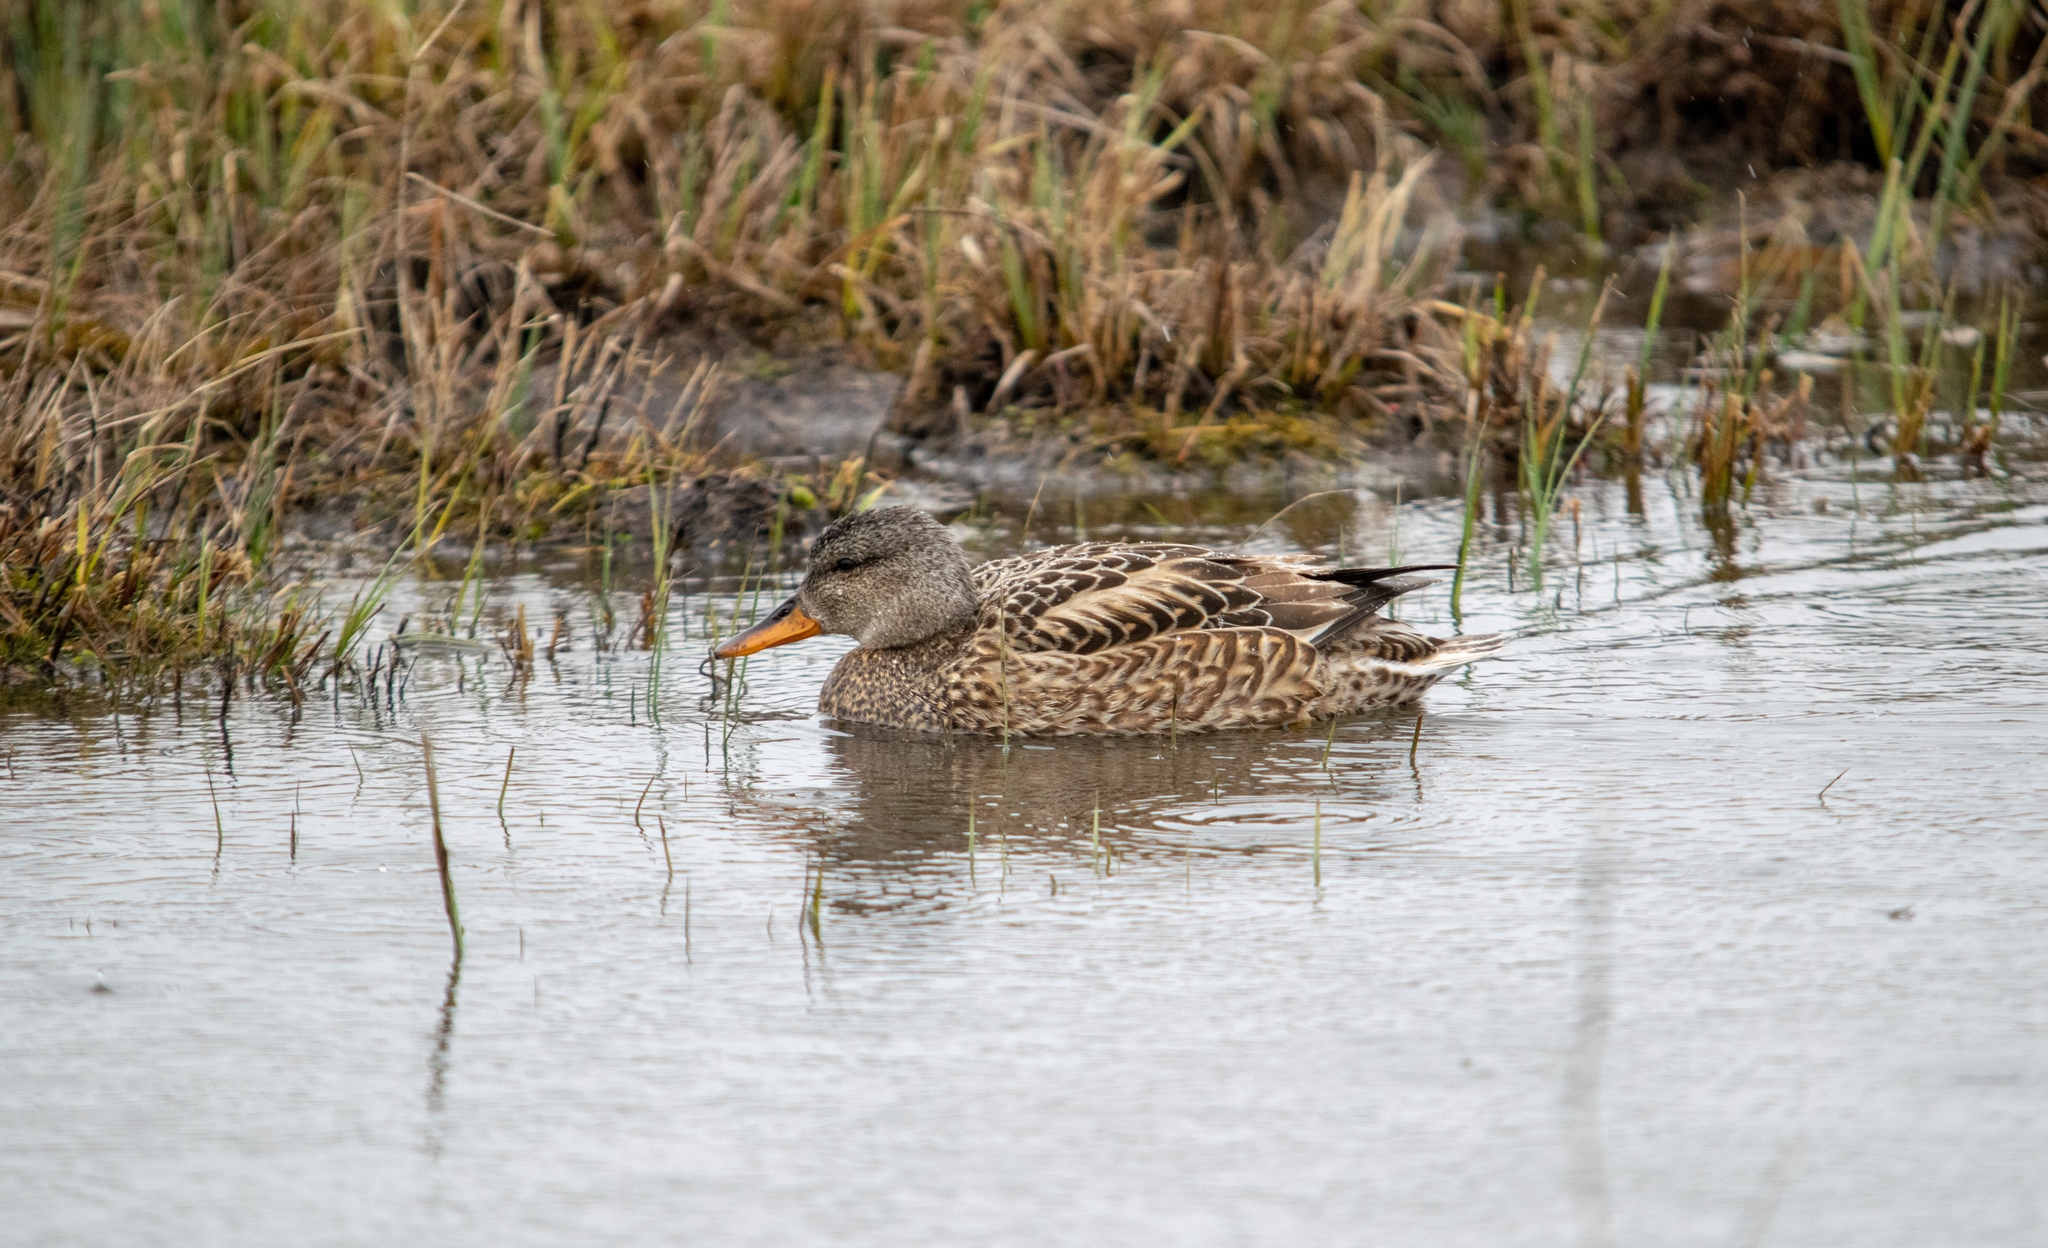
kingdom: Animalia
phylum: Chordata
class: Aves
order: Anseriformes
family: Anatidae
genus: Mareca
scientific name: Mareca strepera
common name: Gadwall
